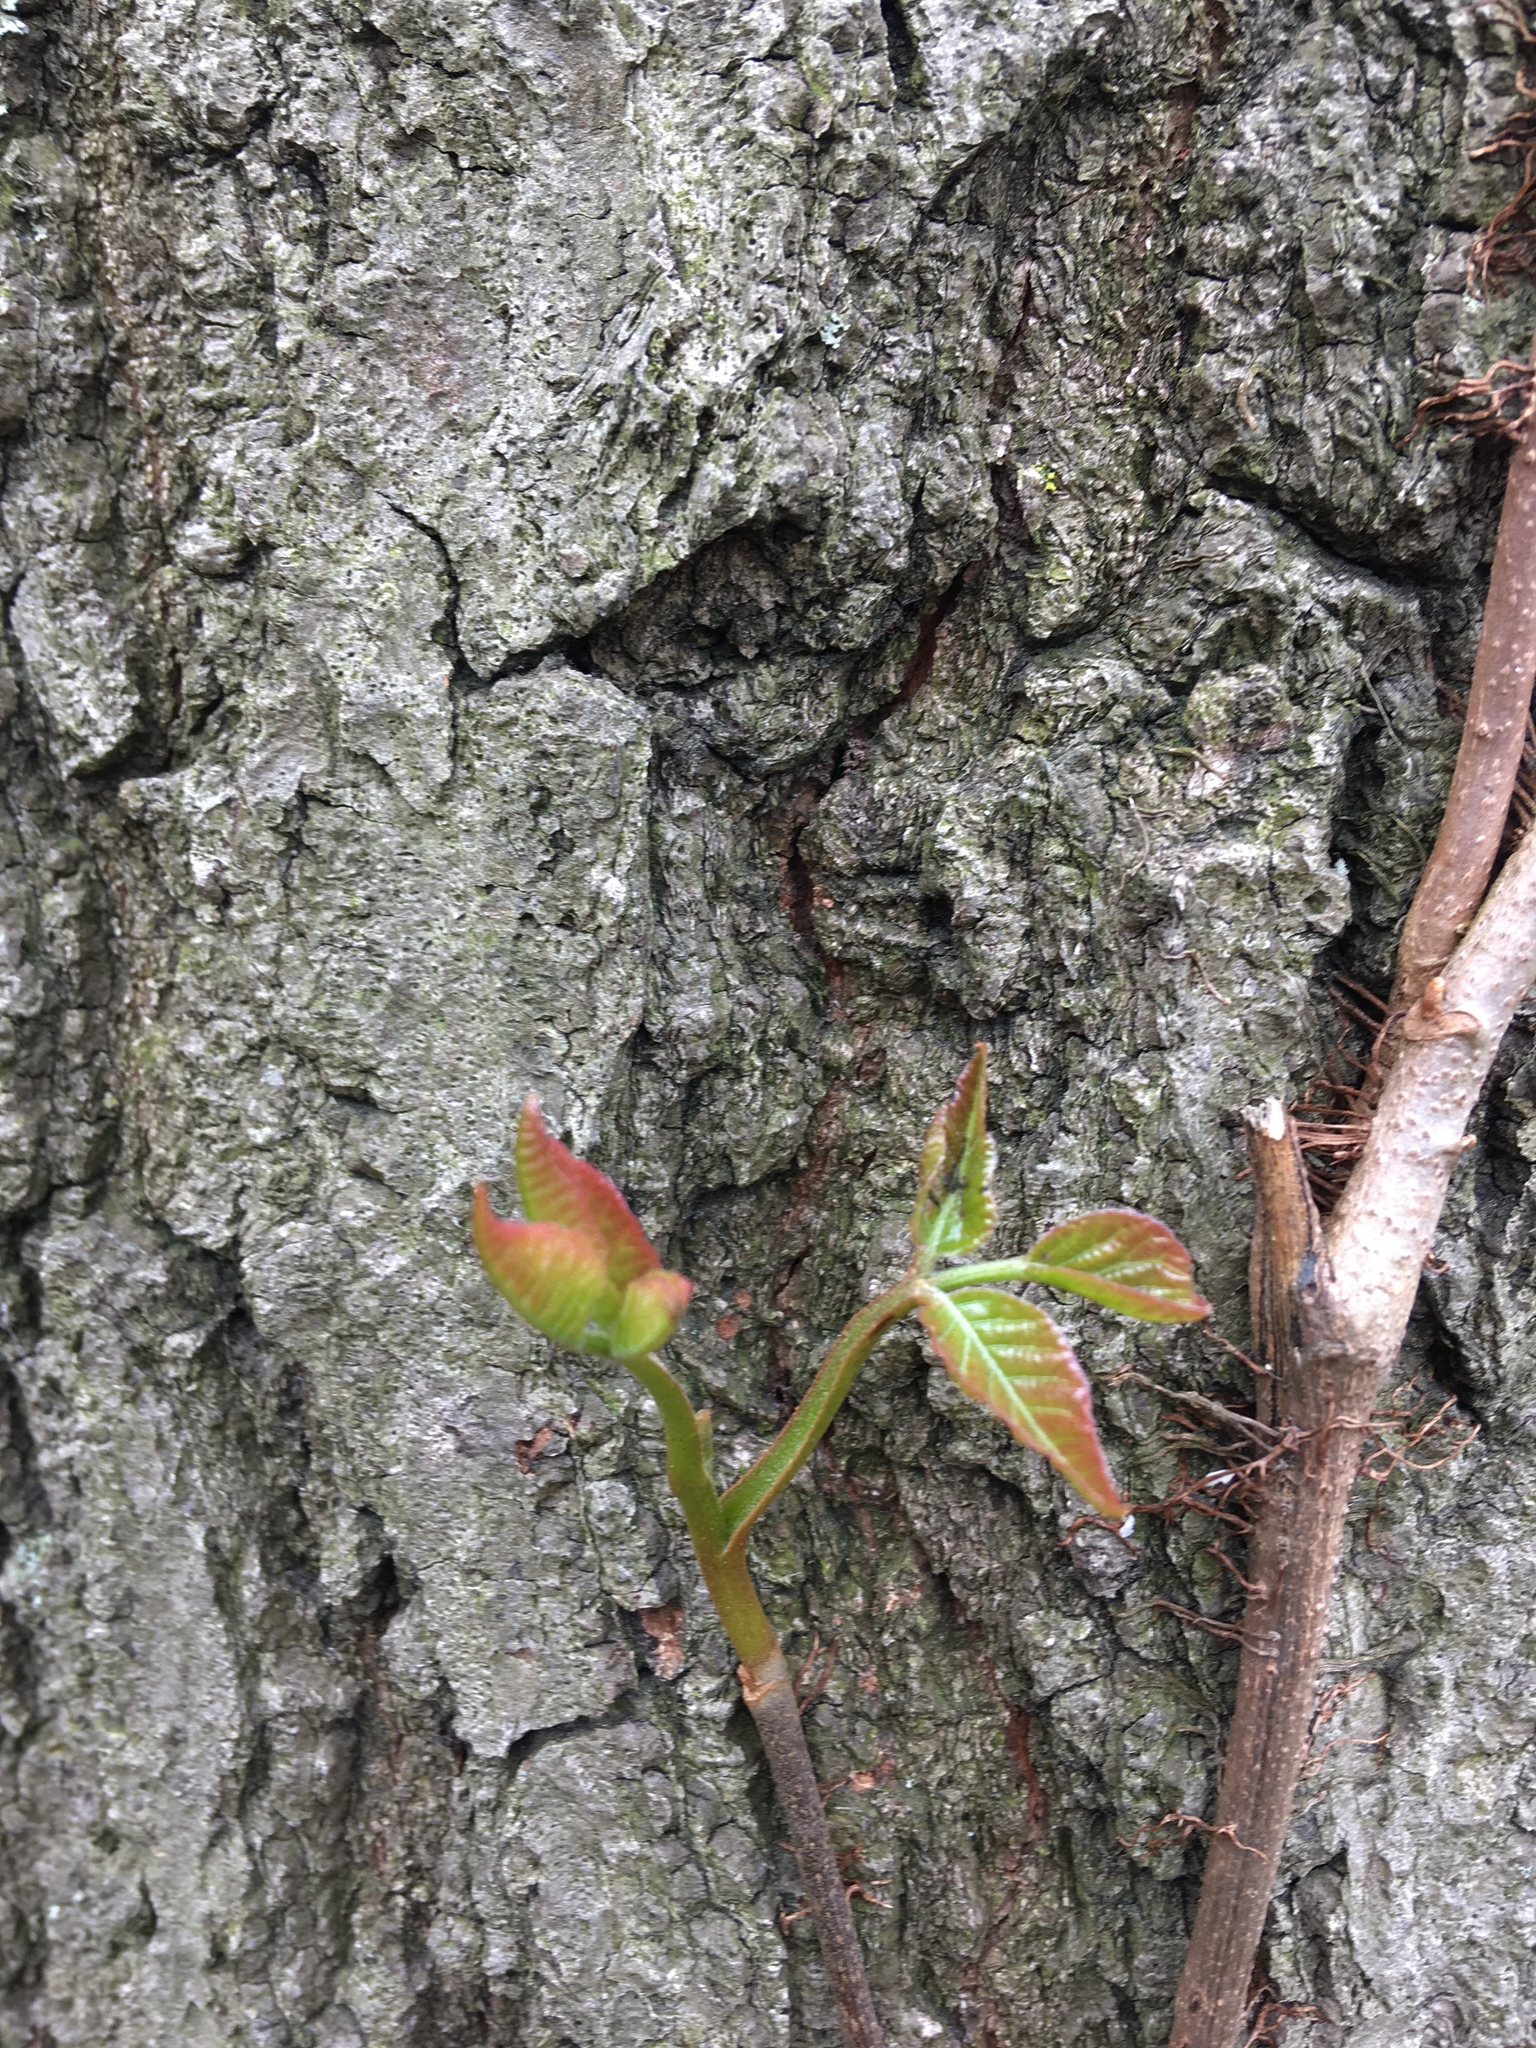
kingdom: Plantae
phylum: Tracheophyta
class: Magnoliopsida
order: Sapindales
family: Anacardiaceae
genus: Toxicodendron
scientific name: Toxicodendron radicans
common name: Poison ivy
